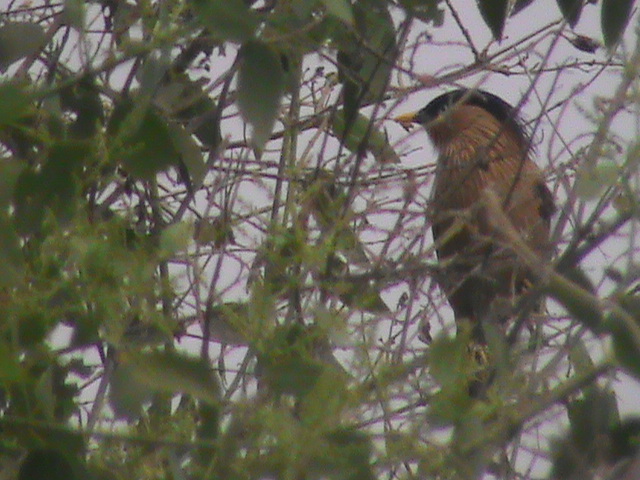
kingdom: Animalia
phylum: Chordata
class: Aves
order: Passeriformes
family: Sturnidae
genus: Sturnia
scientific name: Sturnia pagodarum
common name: Brahminy starling
